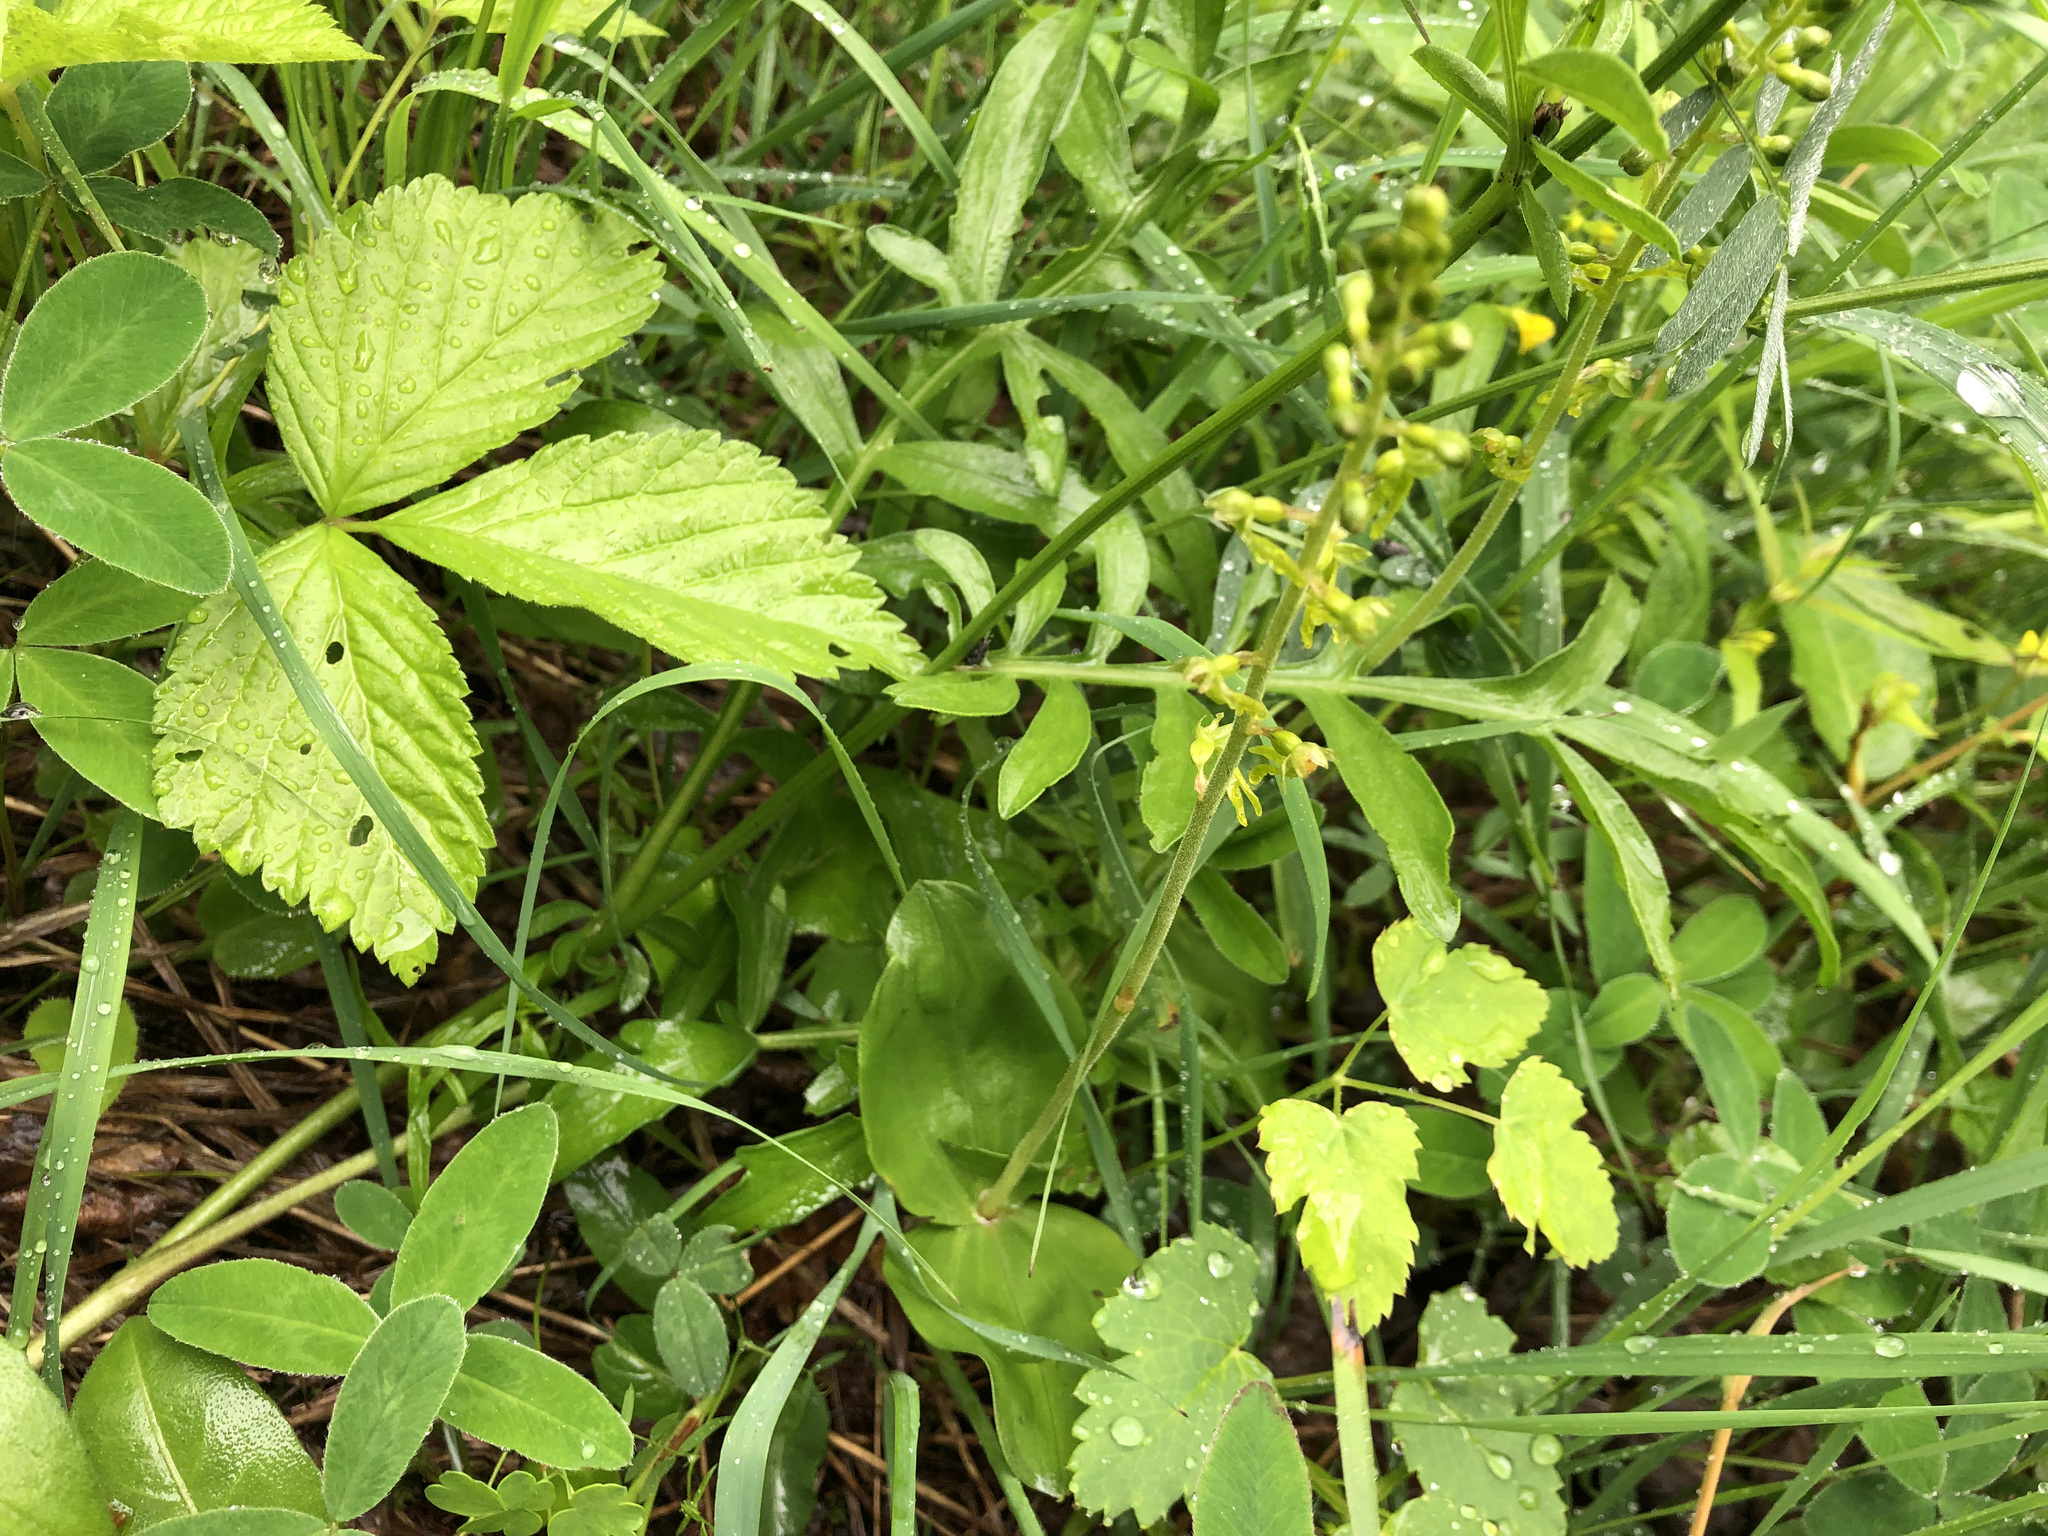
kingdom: Plantae
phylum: Tracheophyta
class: Liliopsida
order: Asparagales
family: Orchidaceae
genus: Neottia
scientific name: Neottia ovata
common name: Common twayblade
